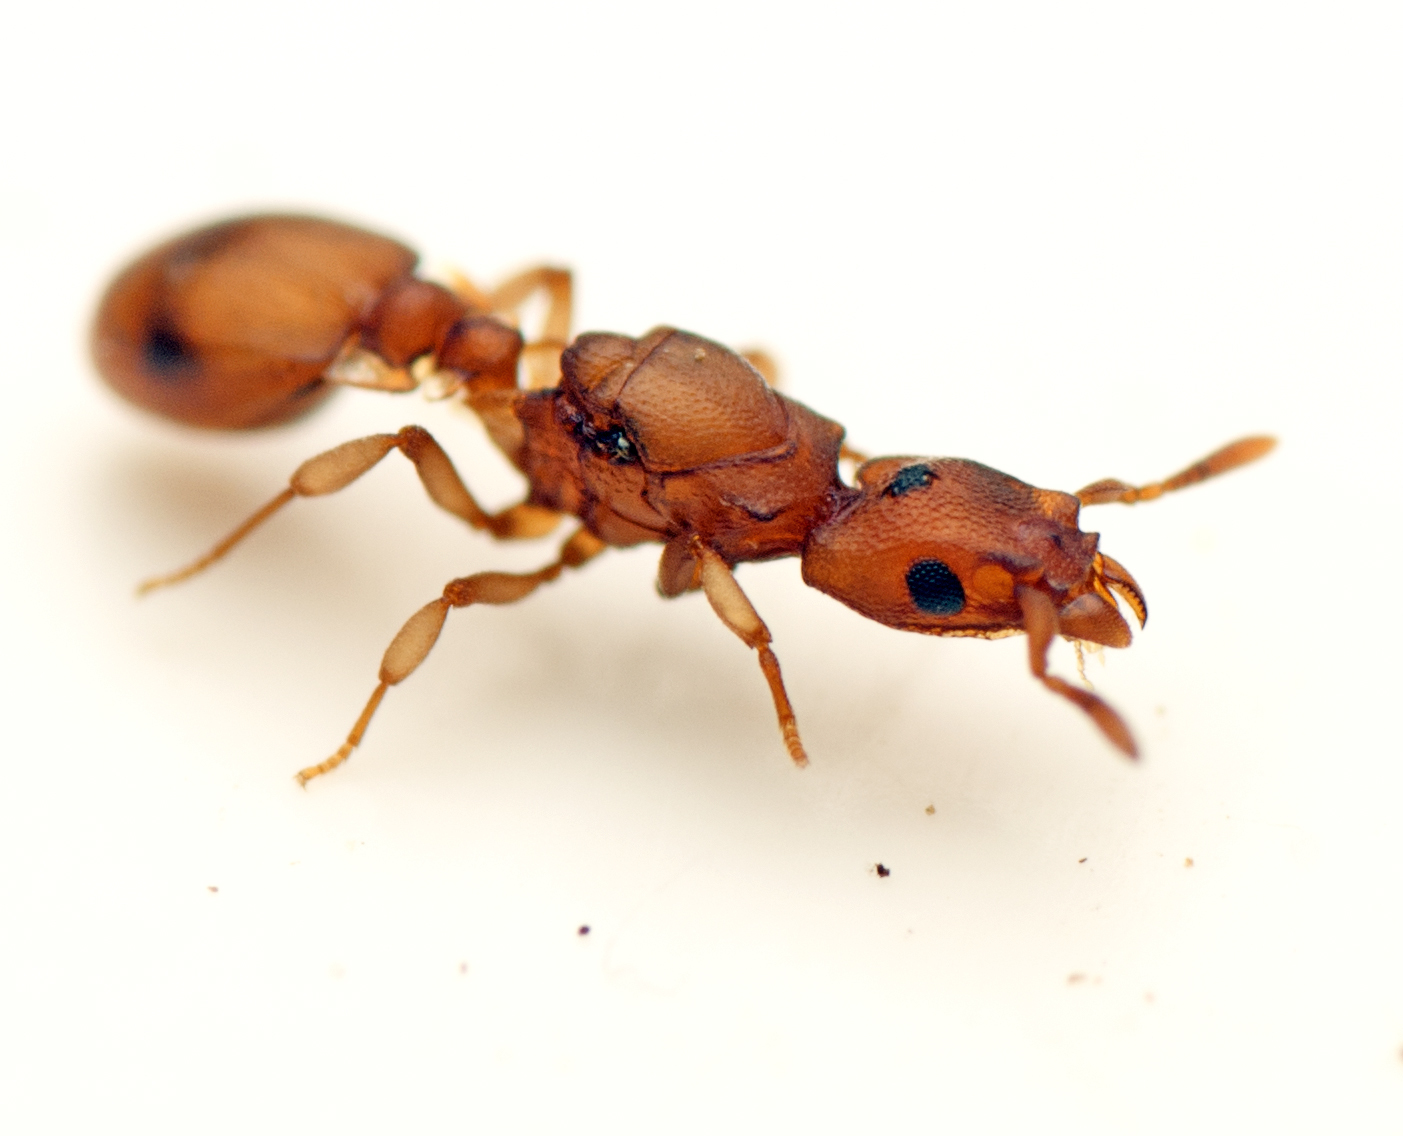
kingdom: Animalia
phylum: Arthropoda
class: Insecta
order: Hymenoptera
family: Formicidae
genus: Colobostruma
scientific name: Colobostruma
